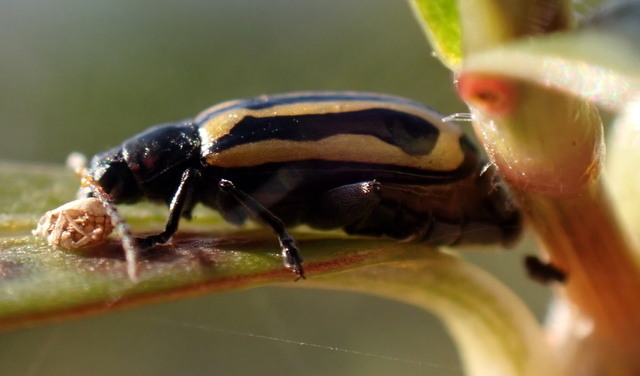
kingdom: Animalia
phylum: Arthropoda
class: Insecta
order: Coleoptera
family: Chrysomelidae
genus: Agasicles
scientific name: Agasicles hygrophila
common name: Alligatorweed flea beetle
